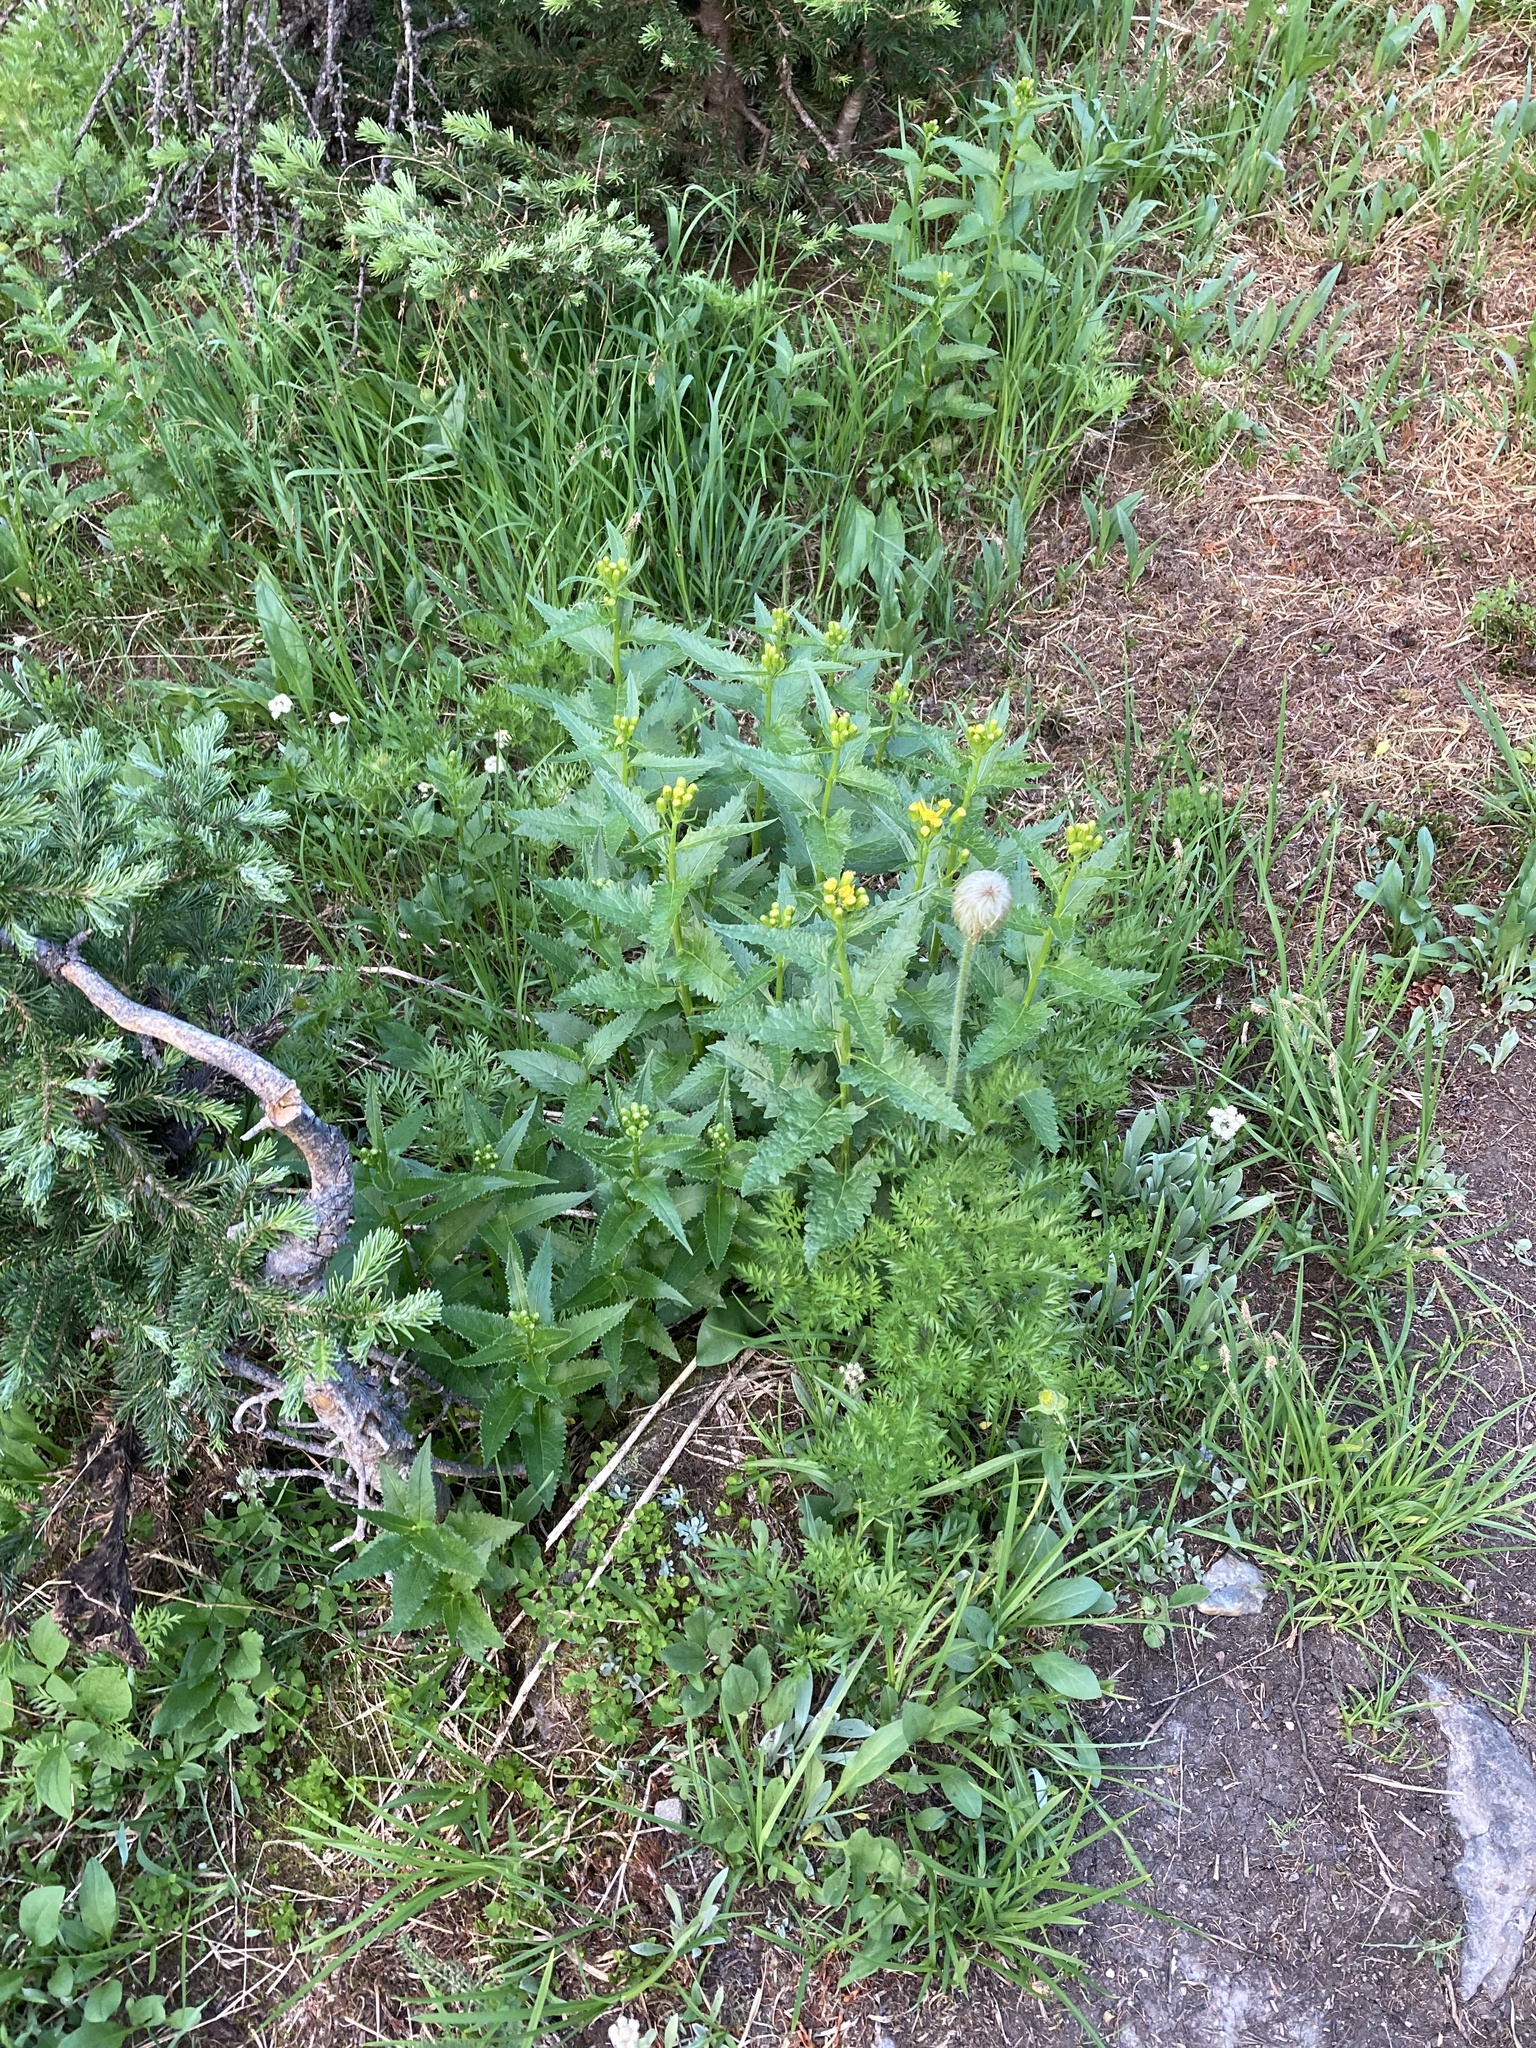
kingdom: Plantae
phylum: Tracheophyta
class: Magnoliopsida
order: Asterales
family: Asteraceae
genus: Senecio
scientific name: Senecio triangularis
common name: Arrowleaf butterweed
